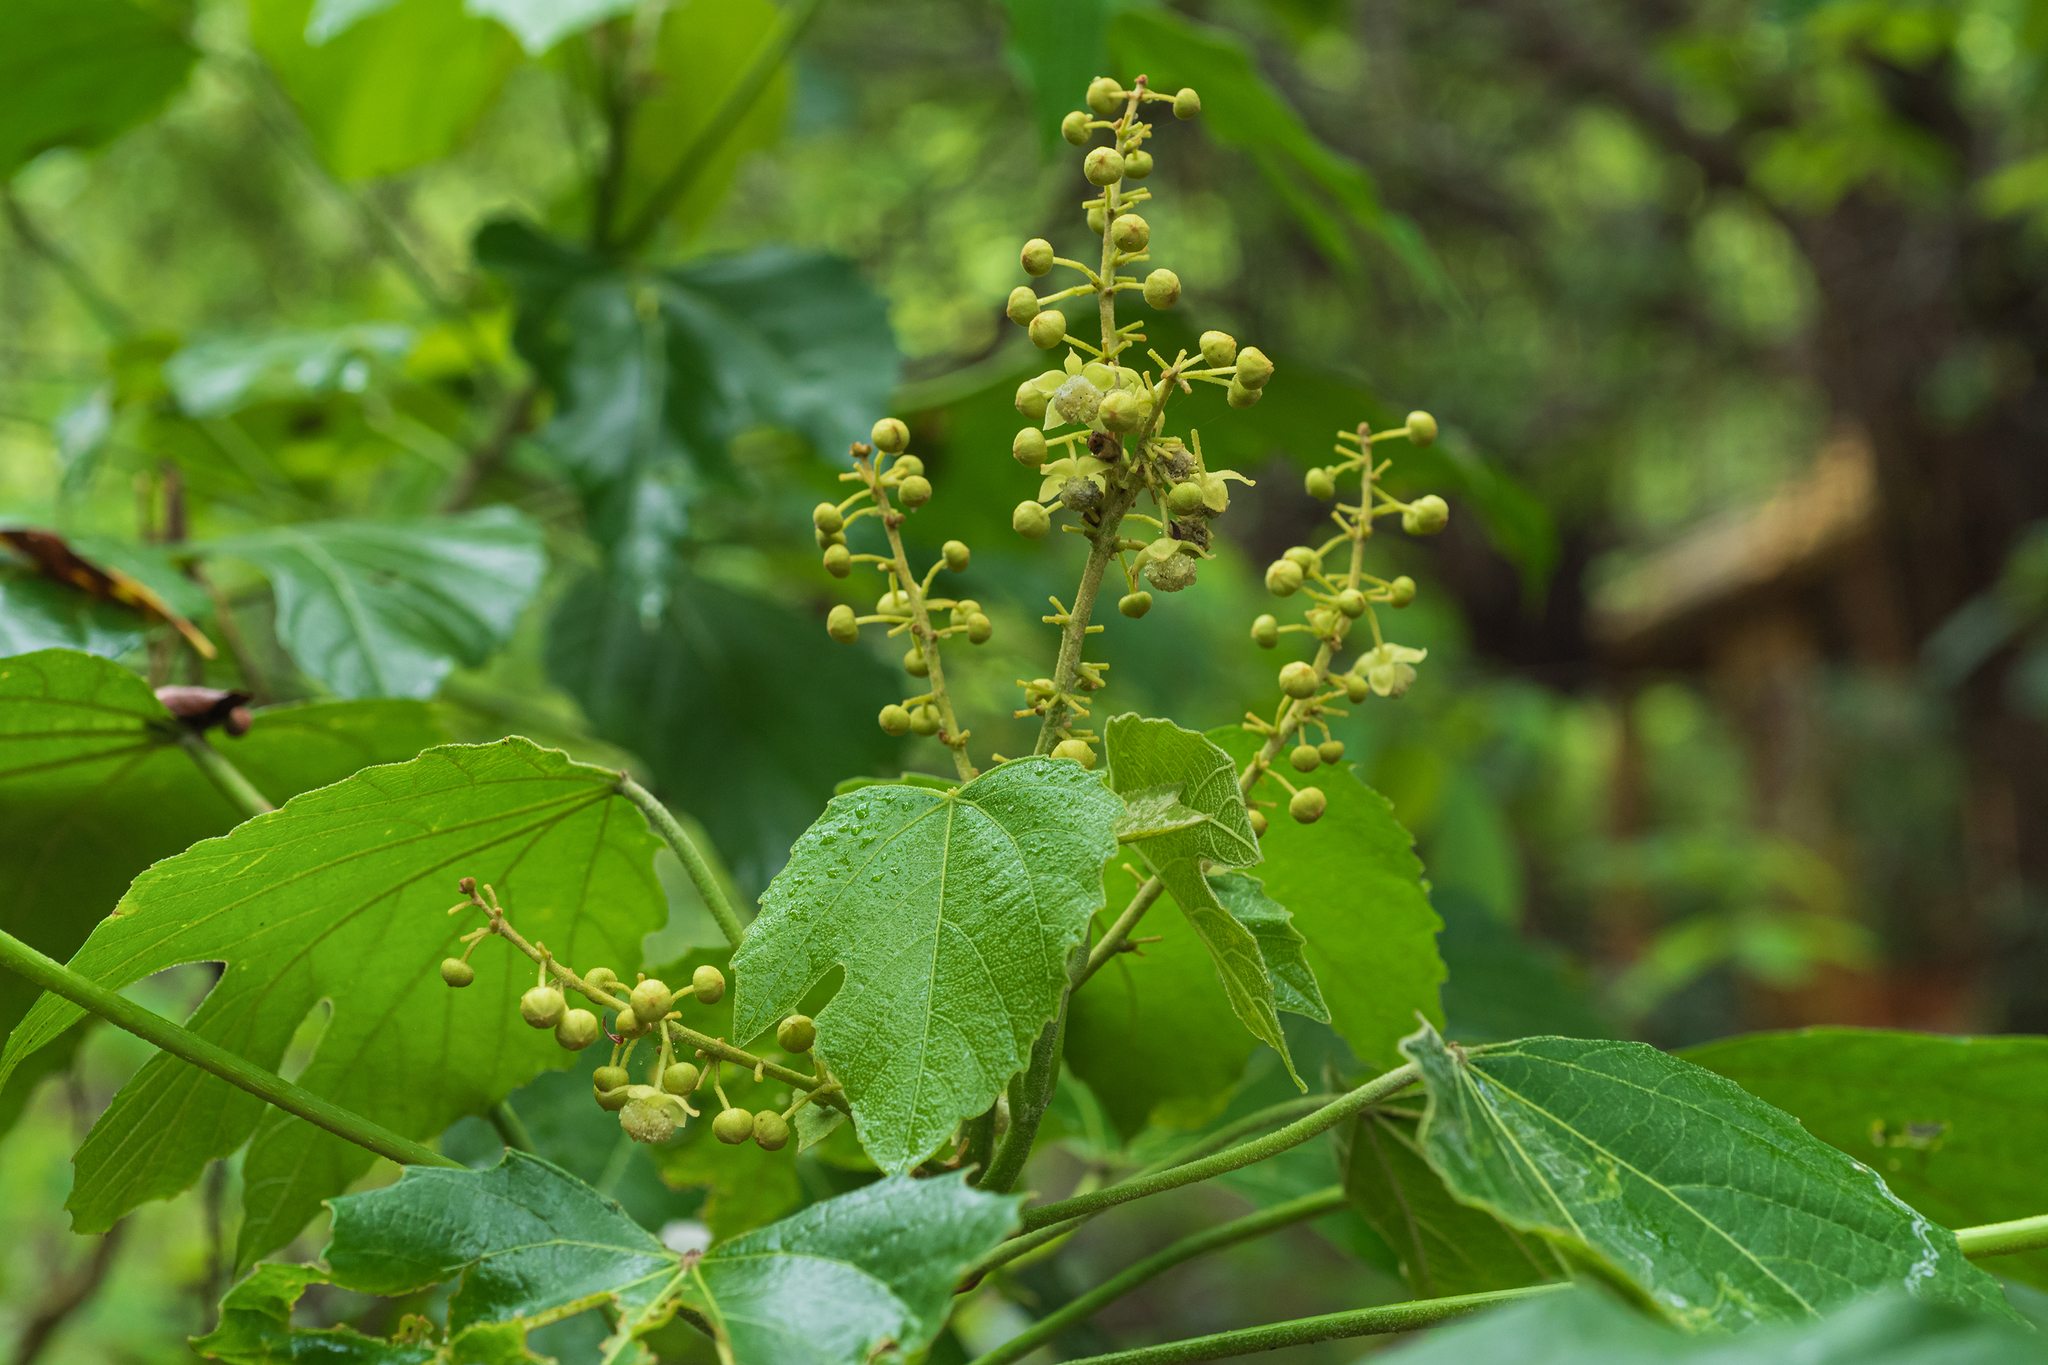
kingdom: Plantae
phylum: Tracheophyta
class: Magnoliopsida
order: Malpighiales
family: Euphorbiaceae
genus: Melanolepis
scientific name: Melanolepis multiglandulosa
